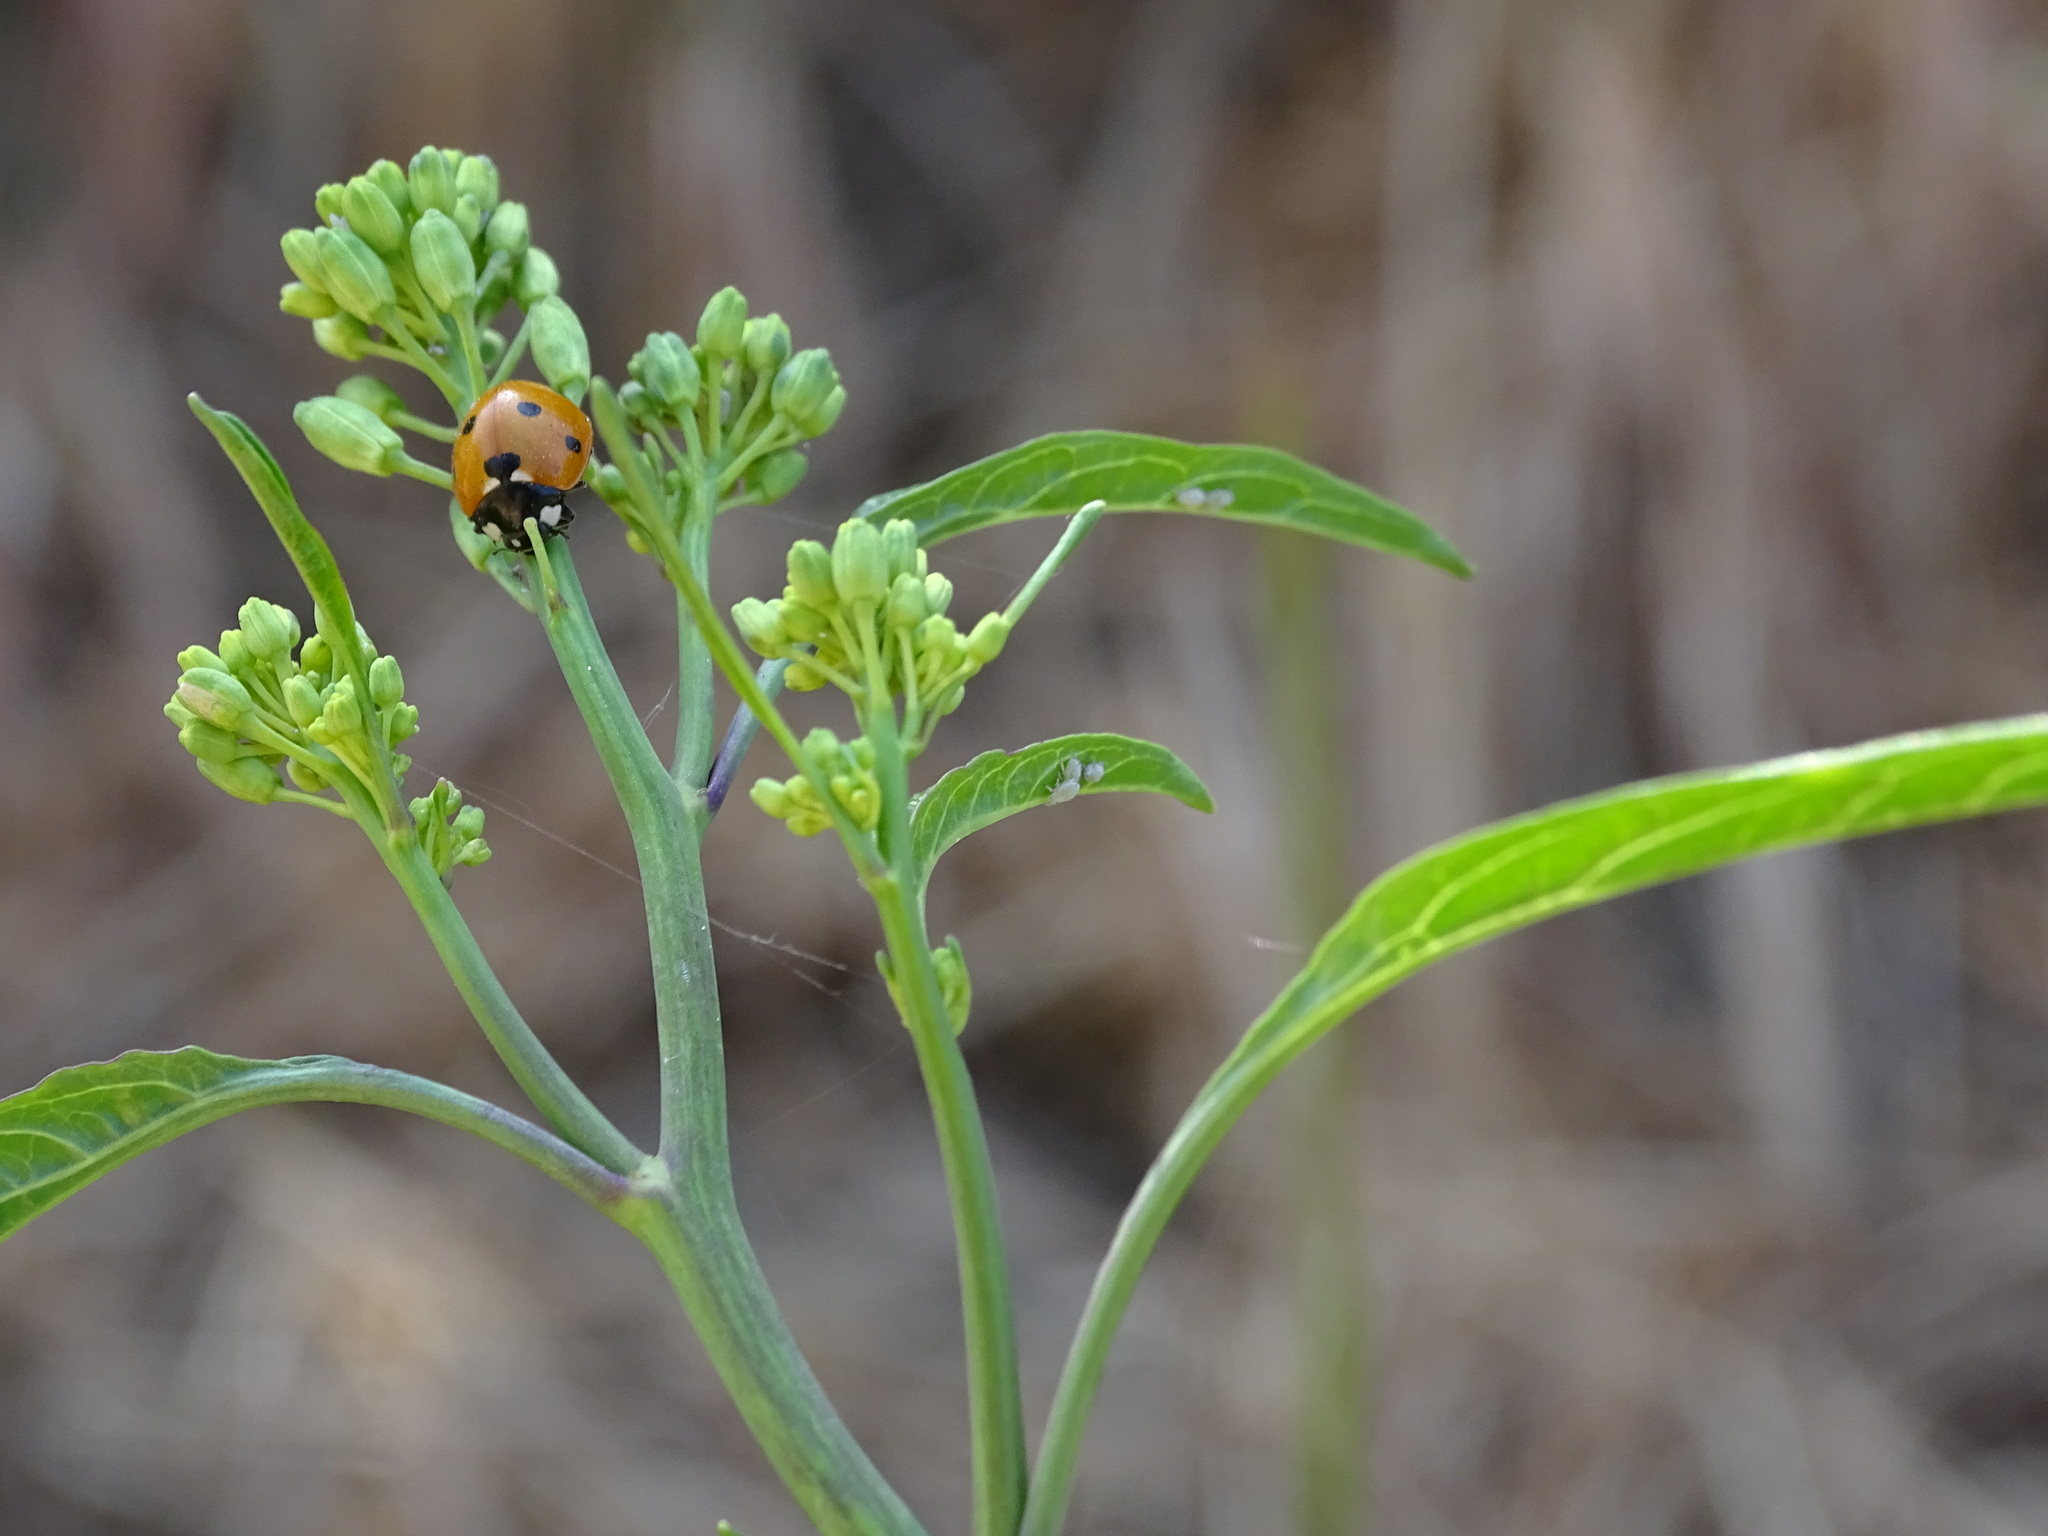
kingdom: Animalia
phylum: Arthropoda
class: Insecta
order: Coleoptera
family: Coccinellidae
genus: Coccinella
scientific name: Coccinella septempunctata
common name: Sevenspotted lady beetle
